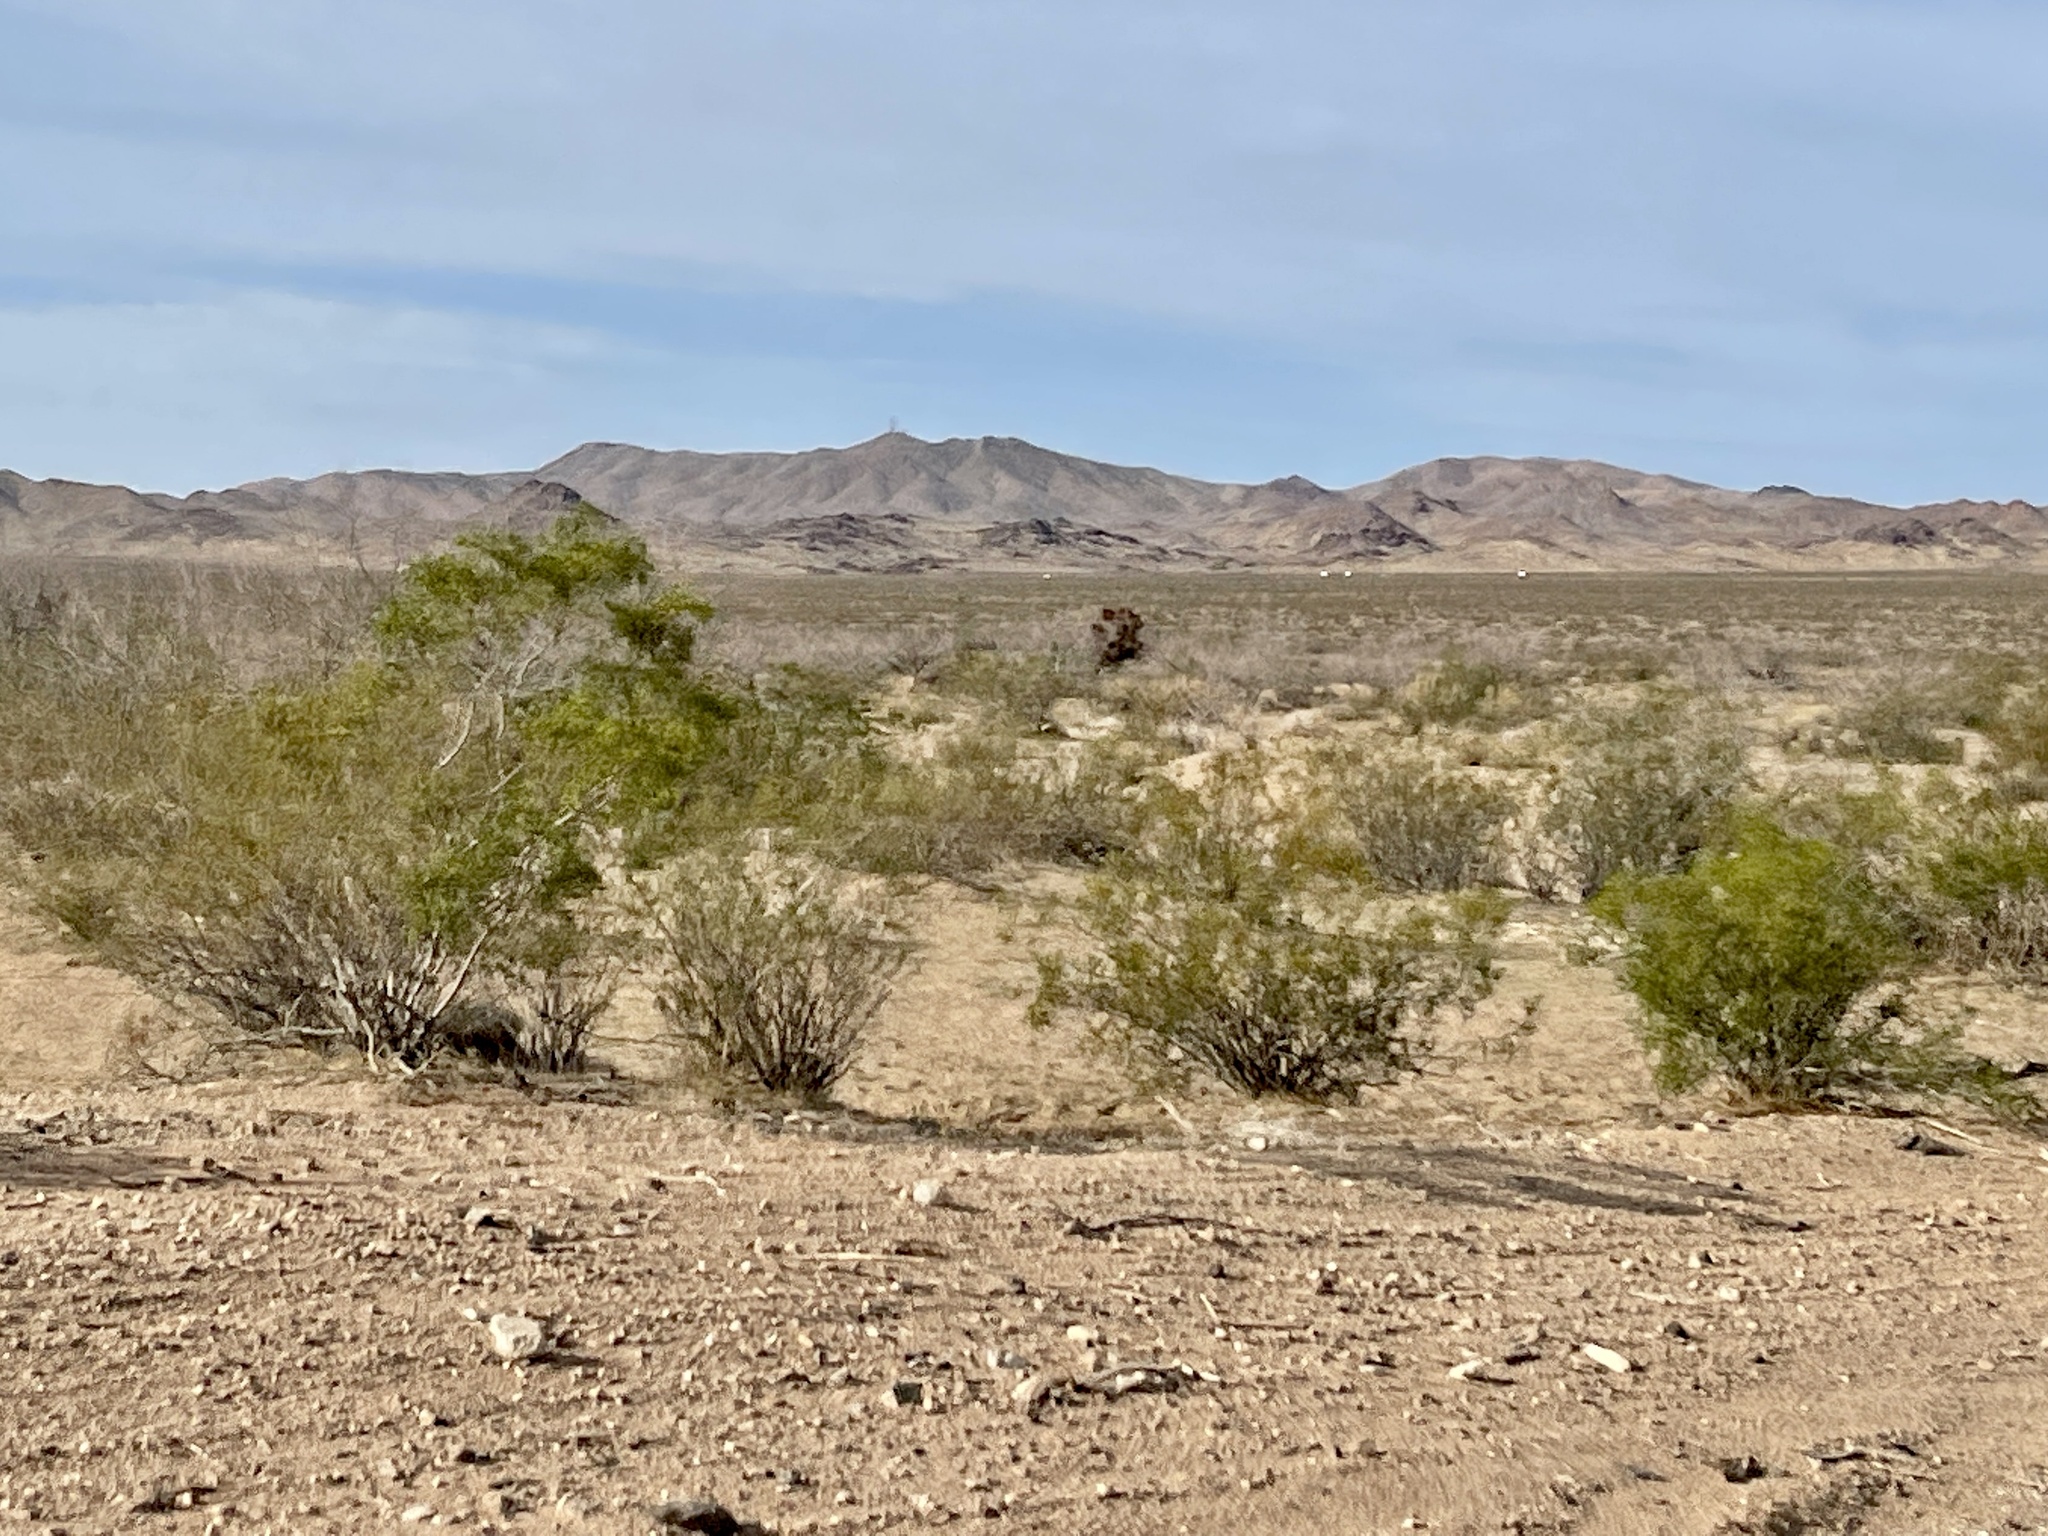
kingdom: Plantae
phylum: Tracheophyta
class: Magnoliopsida
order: Zygophyllales
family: Zygophyllaceae
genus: Larrea
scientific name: Larrea tridentata
